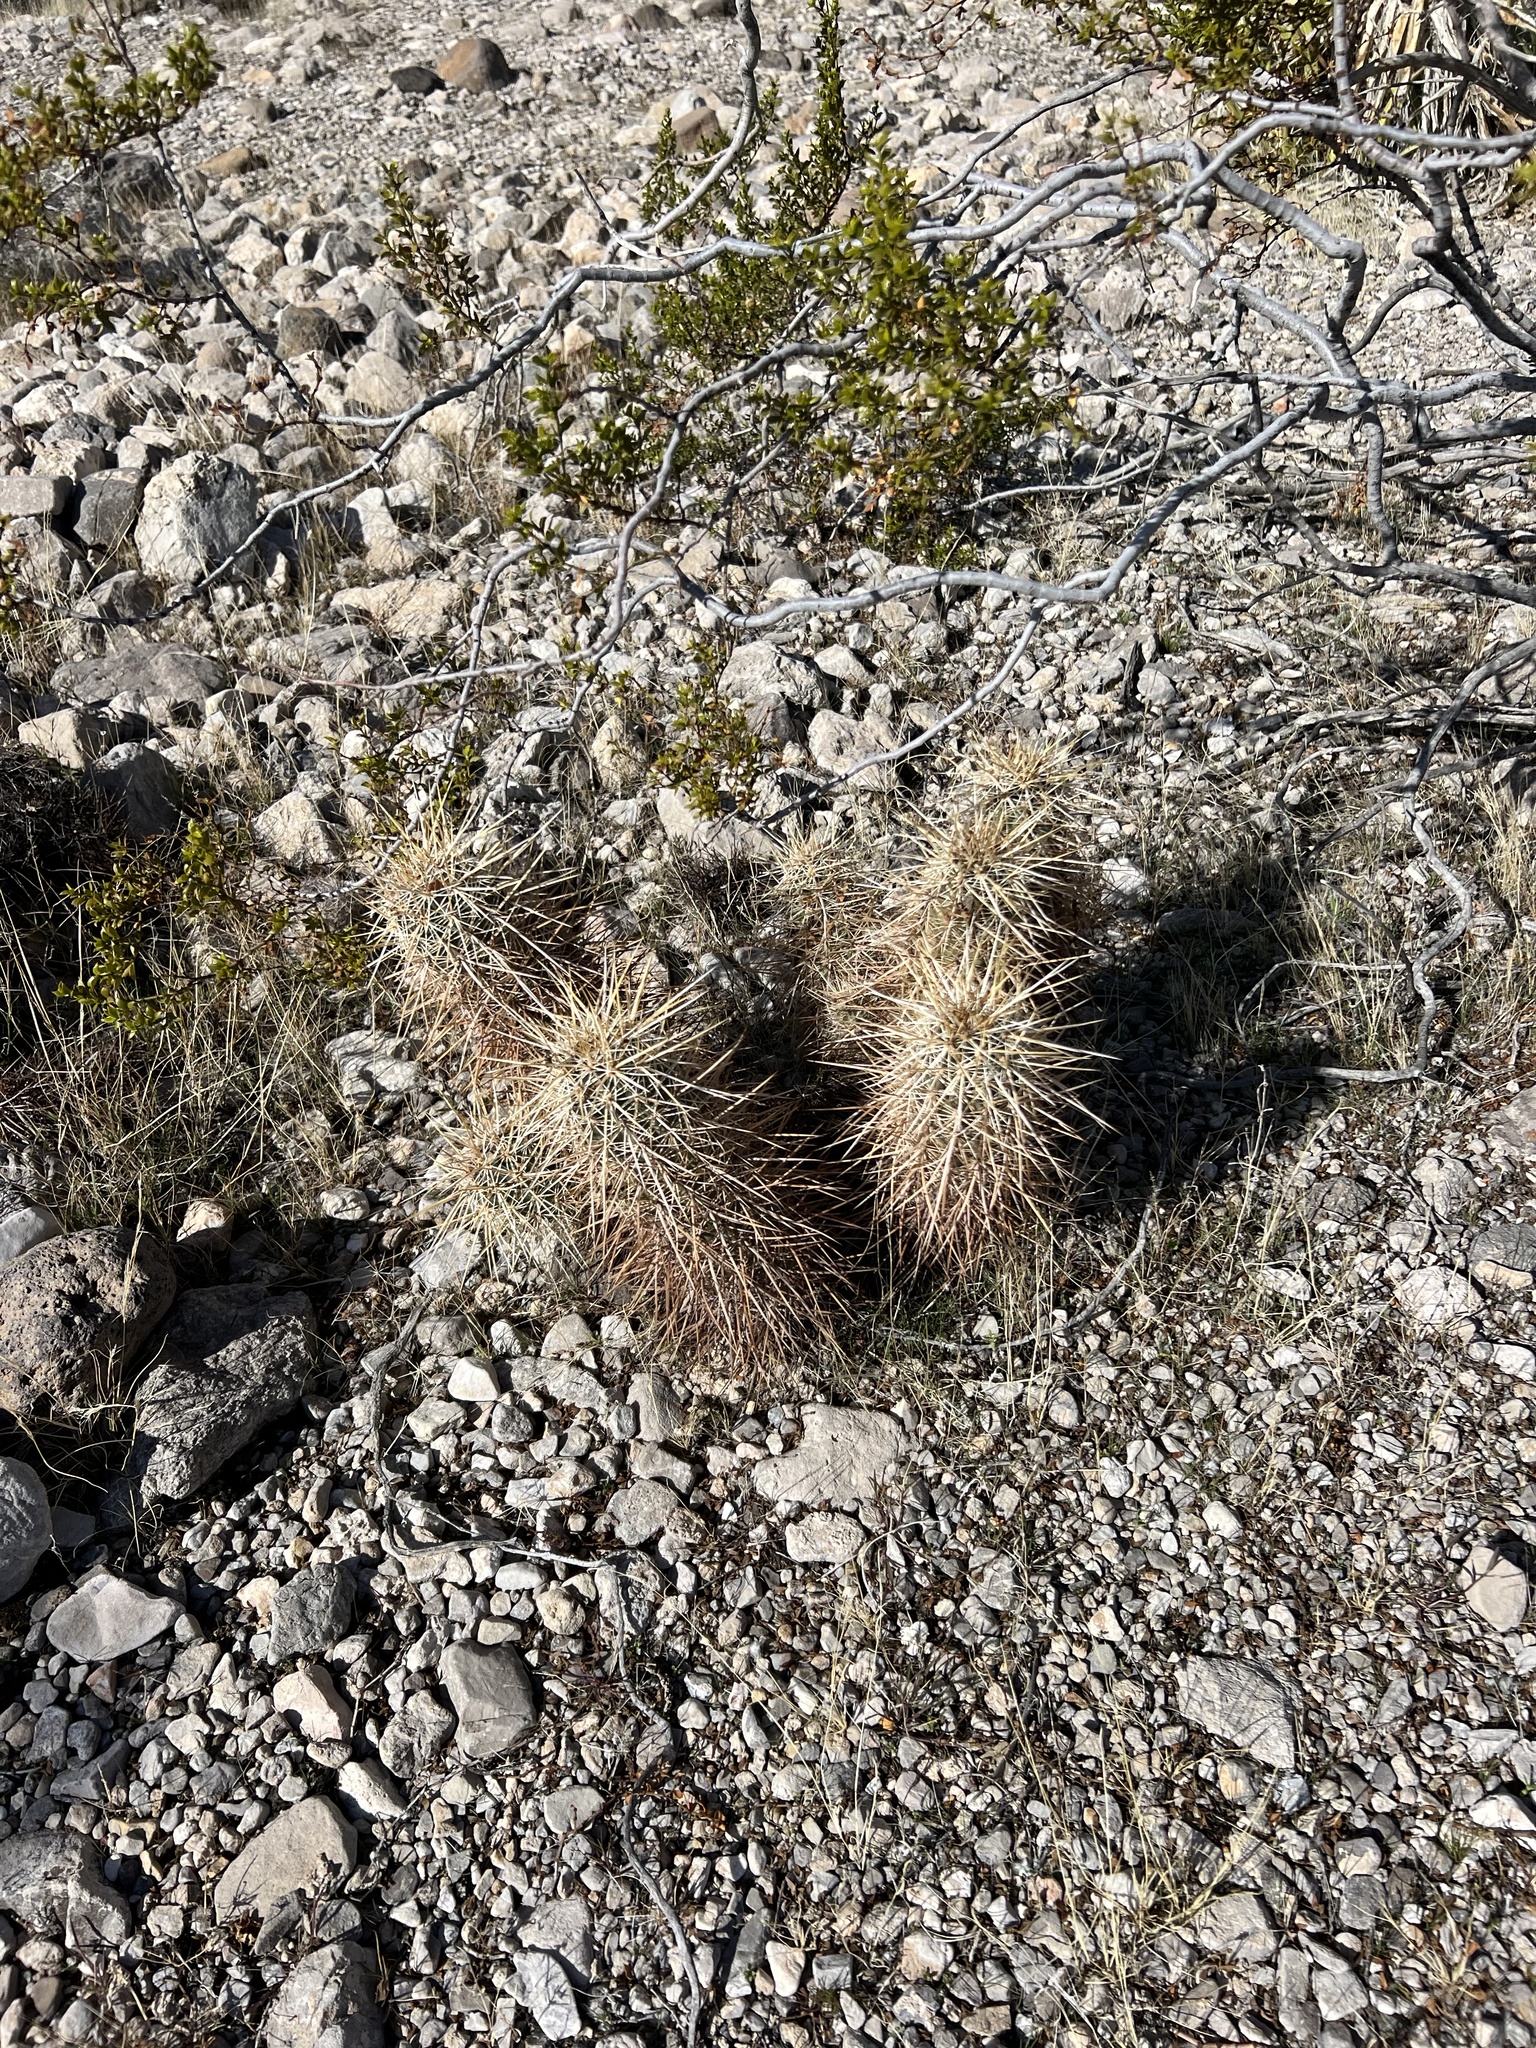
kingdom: Plantae
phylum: Tracheophyta
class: Magnoliopsida
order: Caryophyllales
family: Cactaceae
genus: Echinocereus
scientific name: Echinocereus engelmannii
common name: Engelmann's hedgehog cactus
